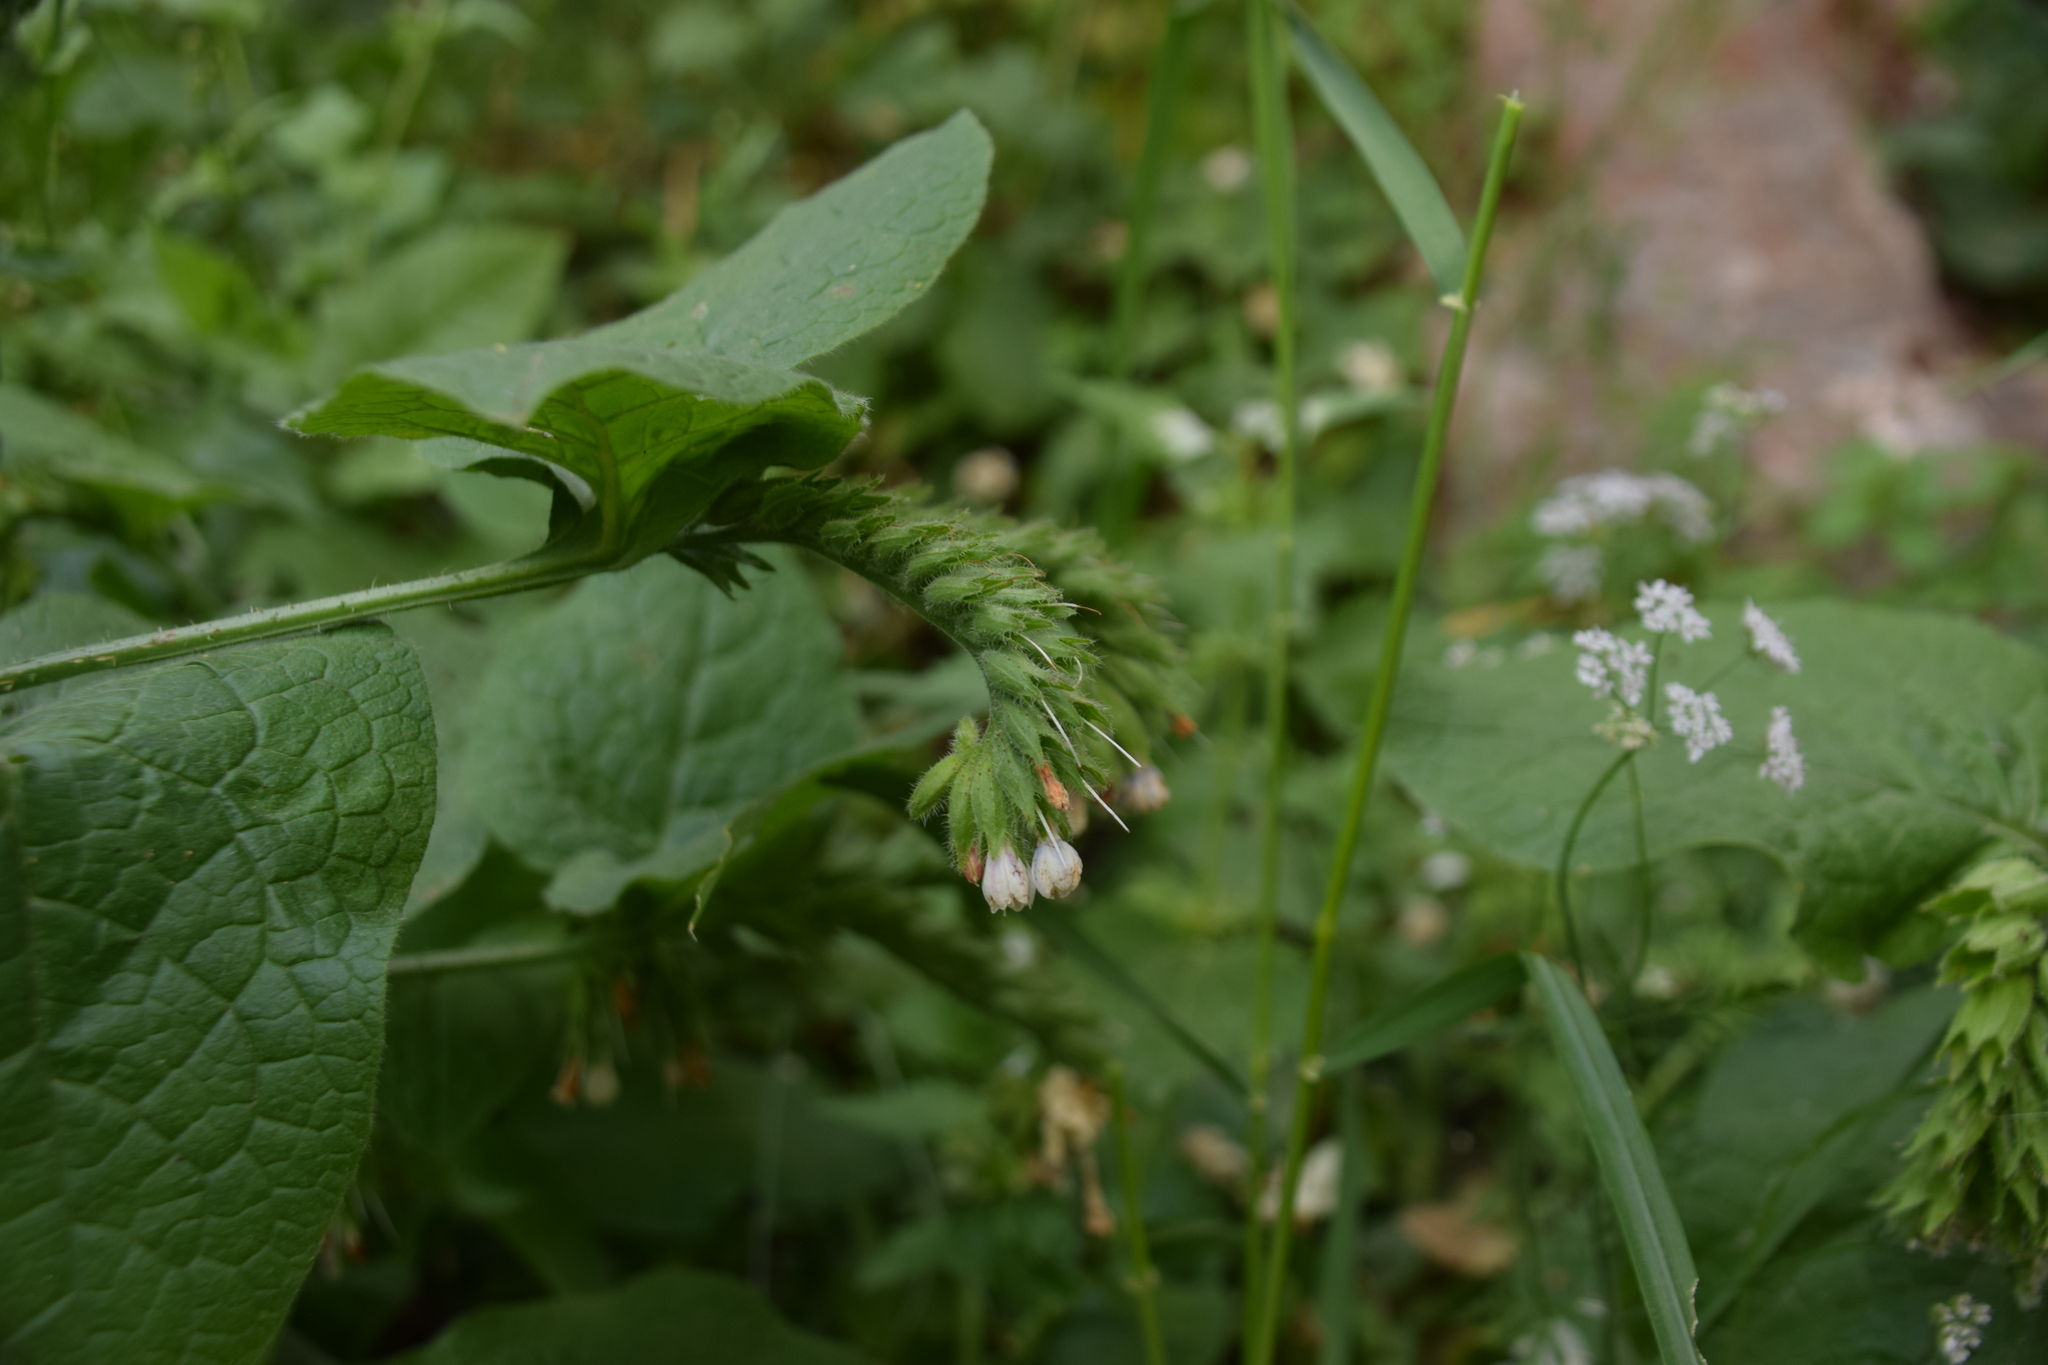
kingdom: Plantae
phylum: Tracheophyta
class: Magnoliopsida
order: Boraginales
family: Boraginaceae
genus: Symphytum
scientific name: Symphytum brachycalyx
